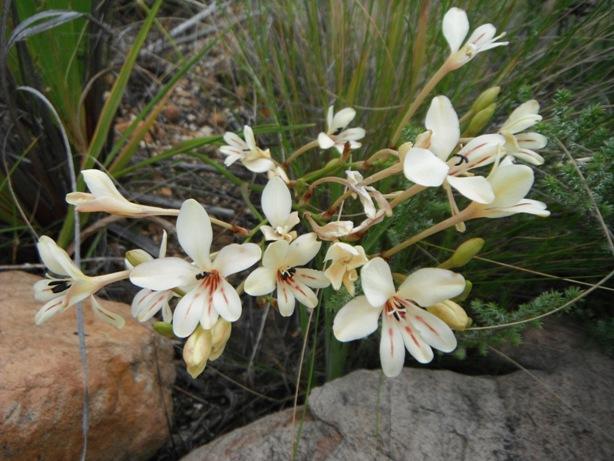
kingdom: Plantae
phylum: Tracheophyta
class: Liliopsida
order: Asparagales
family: Iridaceae
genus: Tritonia
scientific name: Tritonia undulata
